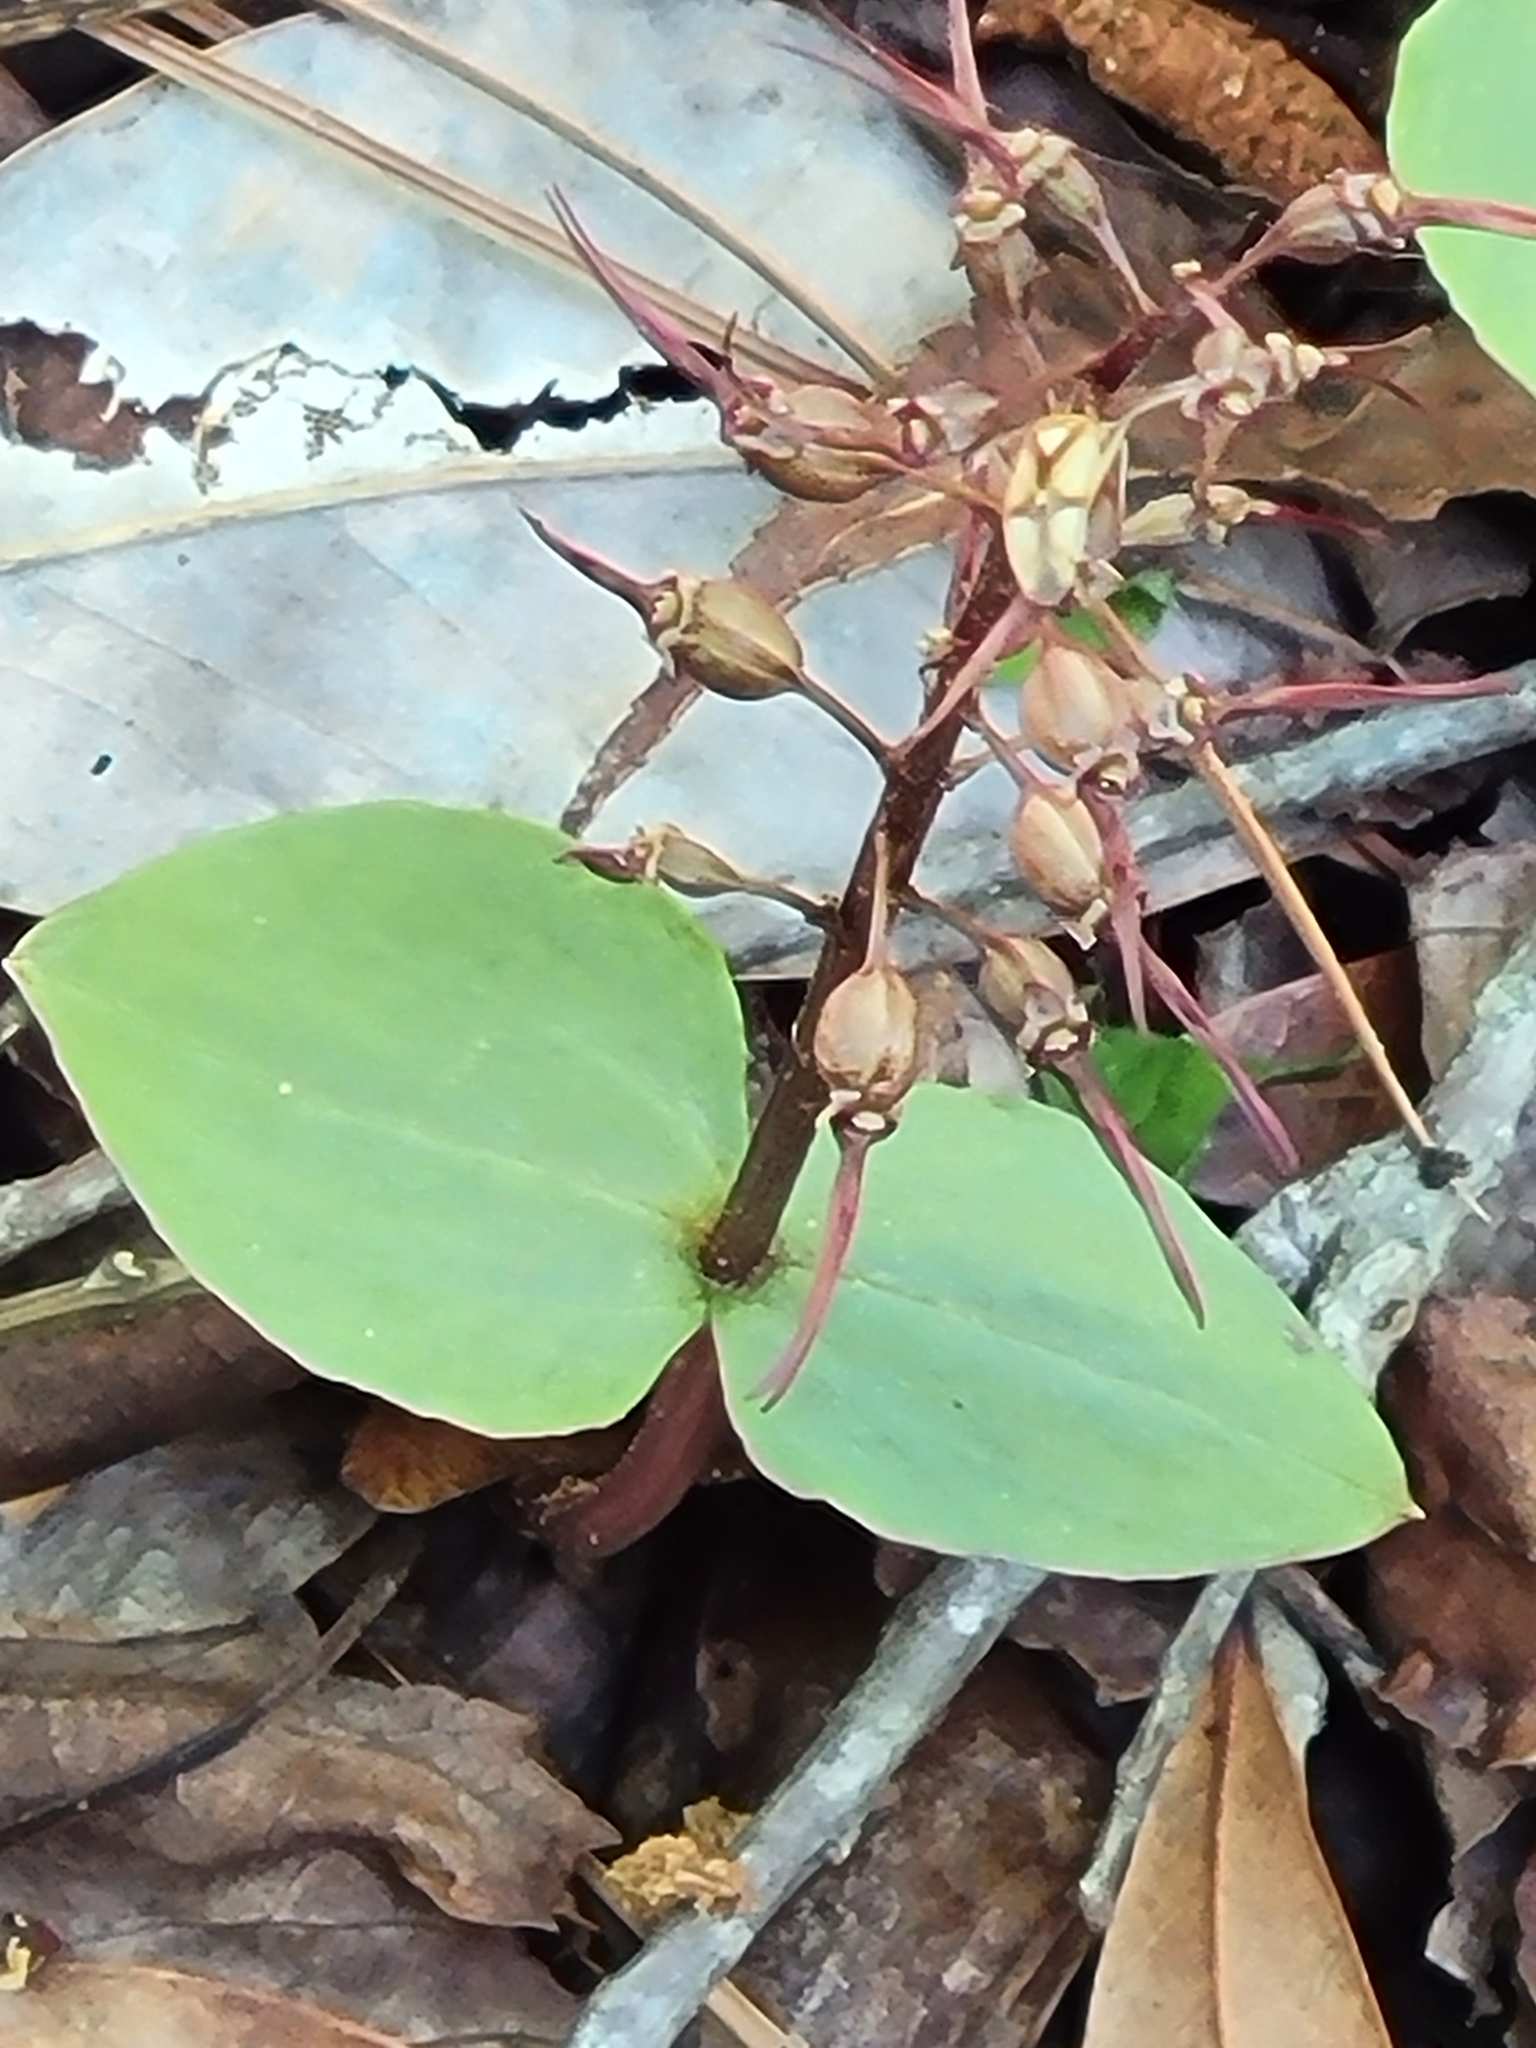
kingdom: Plantae
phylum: Tracheophyta
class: Liliopsida
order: Asparagales
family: Orchidaceae
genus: Neottia
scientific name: Neottia bifolia
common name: Southern twayblade
